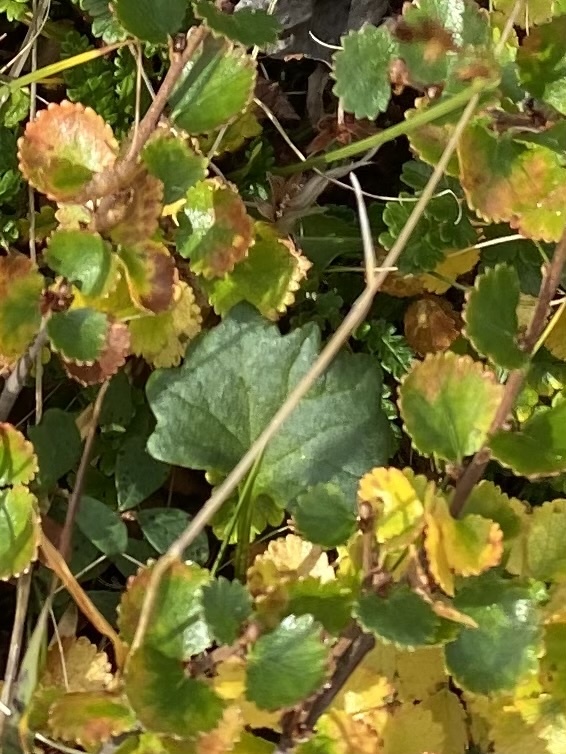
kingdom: Plantae
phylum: Tracheophyta
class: Magnoliopsida
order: Asterales
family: Asteraceae
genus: Endocellion
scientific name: Endocellion glaciale
